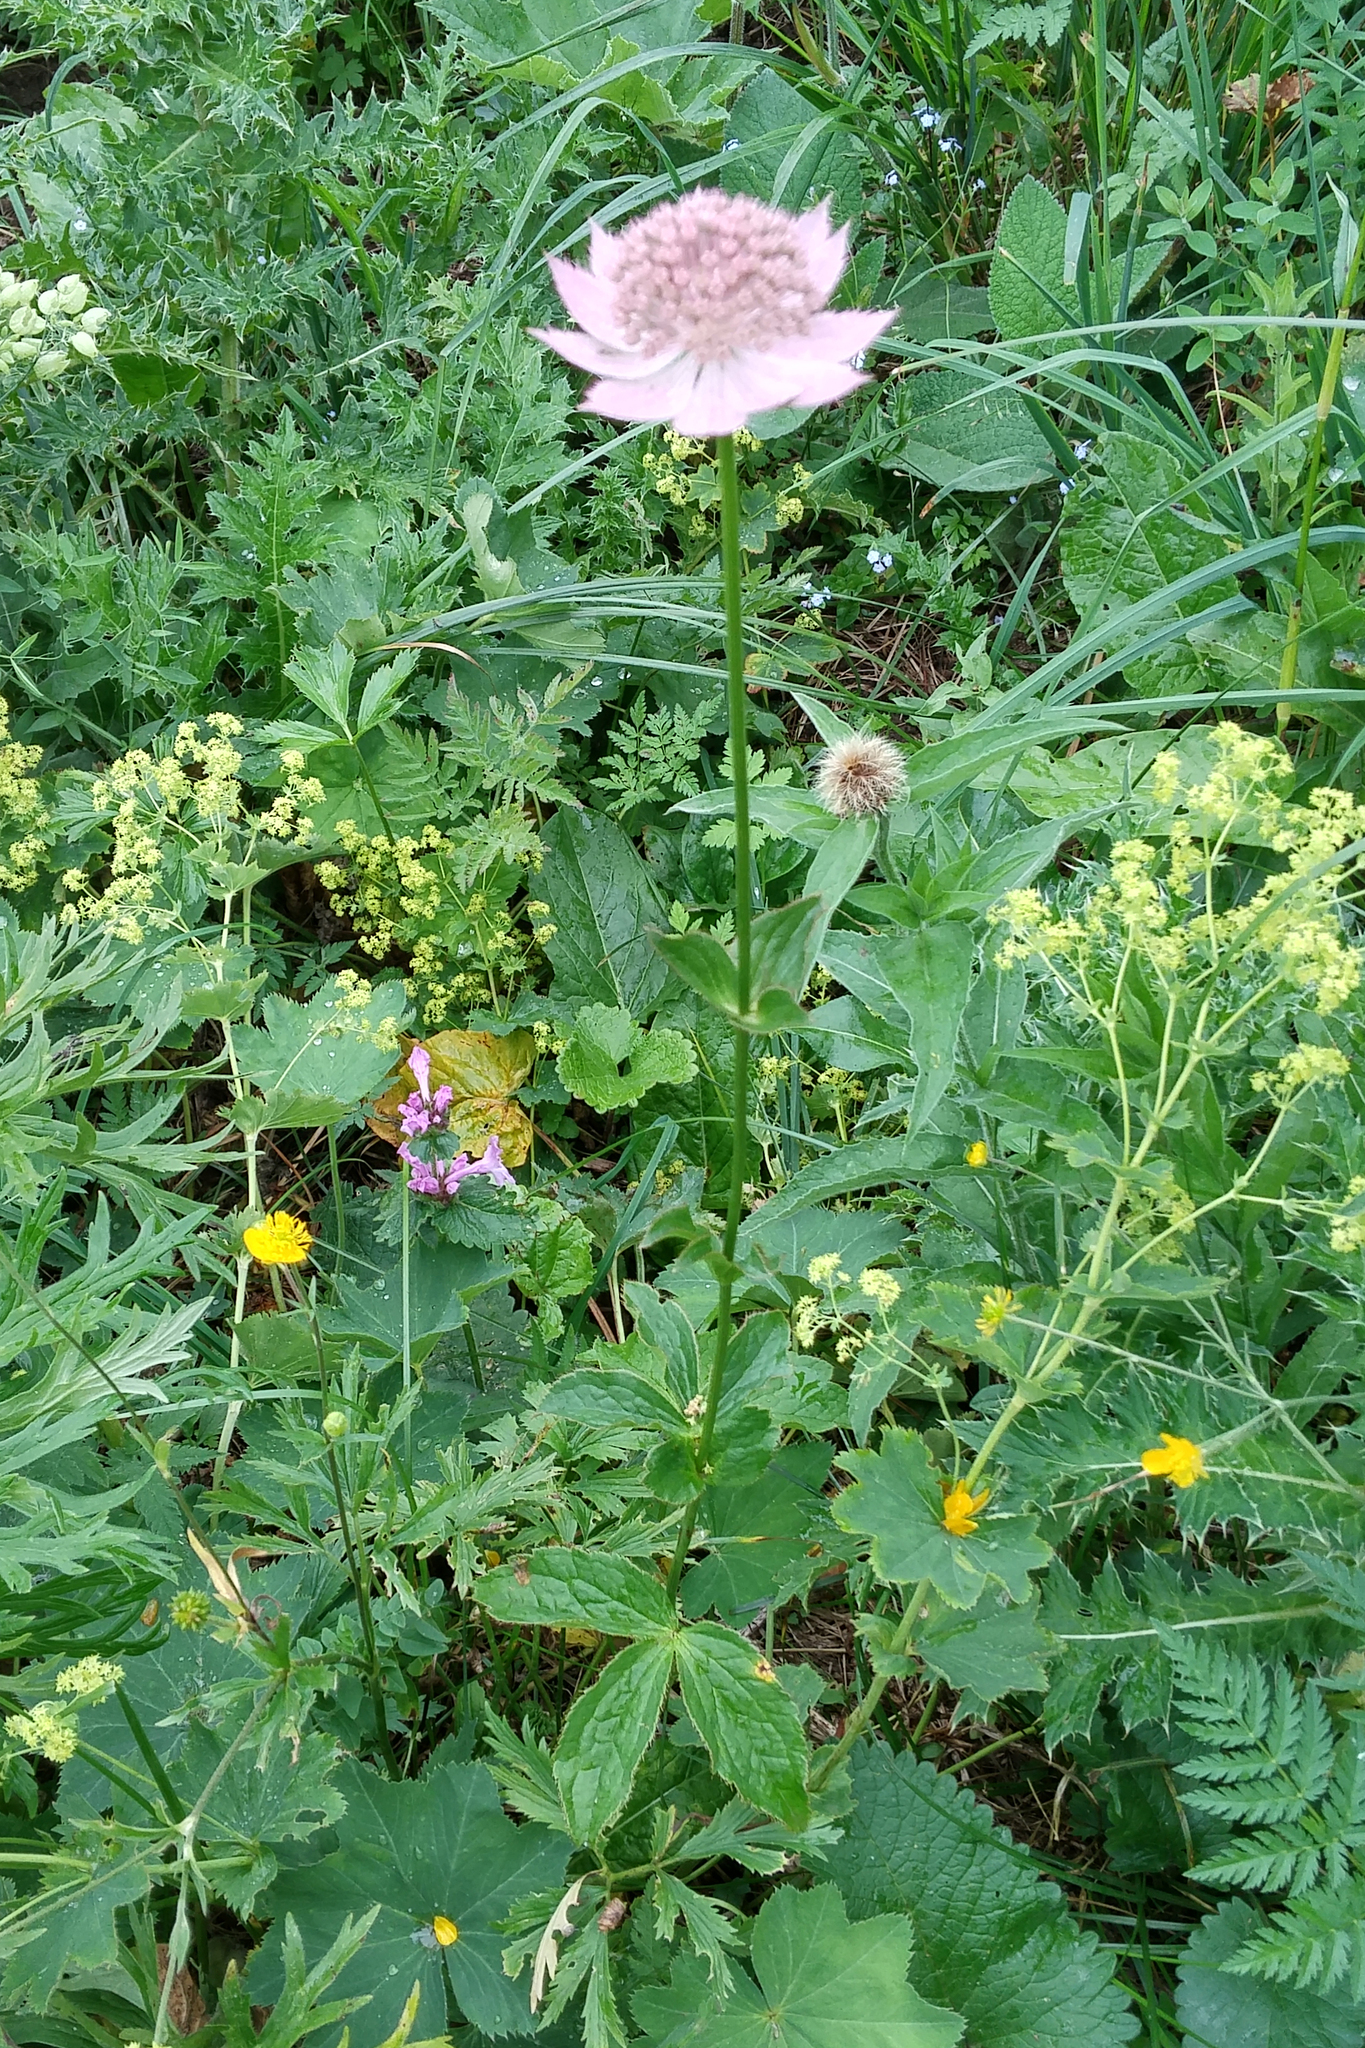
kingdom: Plantae
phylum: Tracheophyta
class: Magnoliopsida
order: Apiales
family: Apiaceae
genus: Astrantia
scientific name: Astrantia maxima
